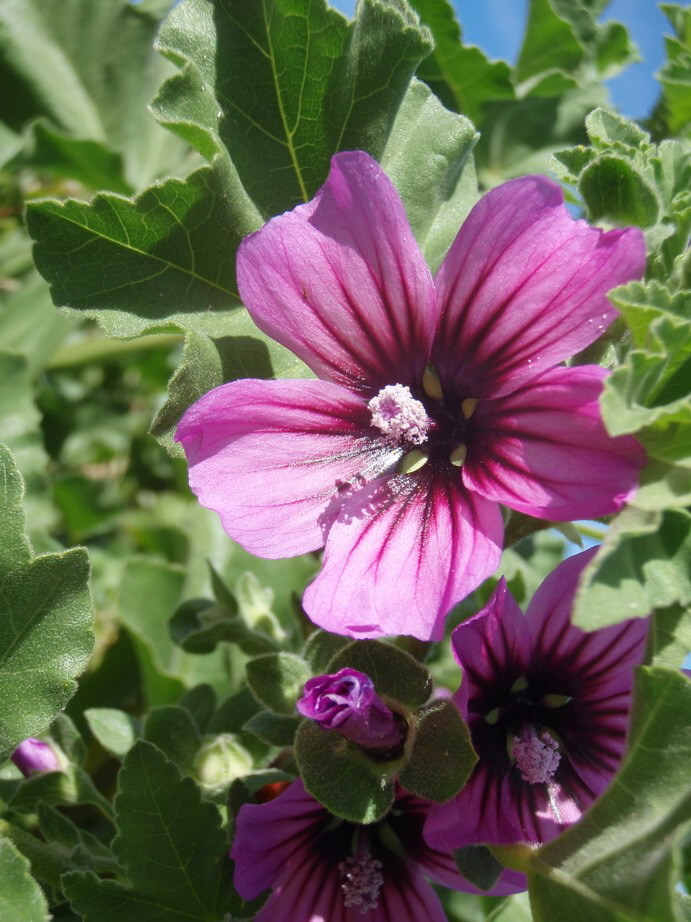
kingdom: Plantae
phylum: Tracheophyta
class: Magnoliopsida
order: Malvales
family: Malvaceae
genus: Malva
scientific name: Malva arborea
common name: Tree mallow
